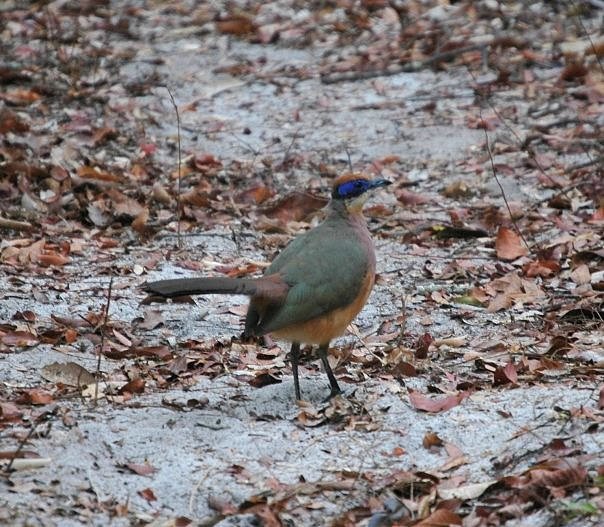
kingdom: Animalia
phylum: Chordata
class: Aves
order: Cuculiformes
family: Cuculidae
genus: Coua
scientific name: Coua ruficeps
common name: Red-capped coua
